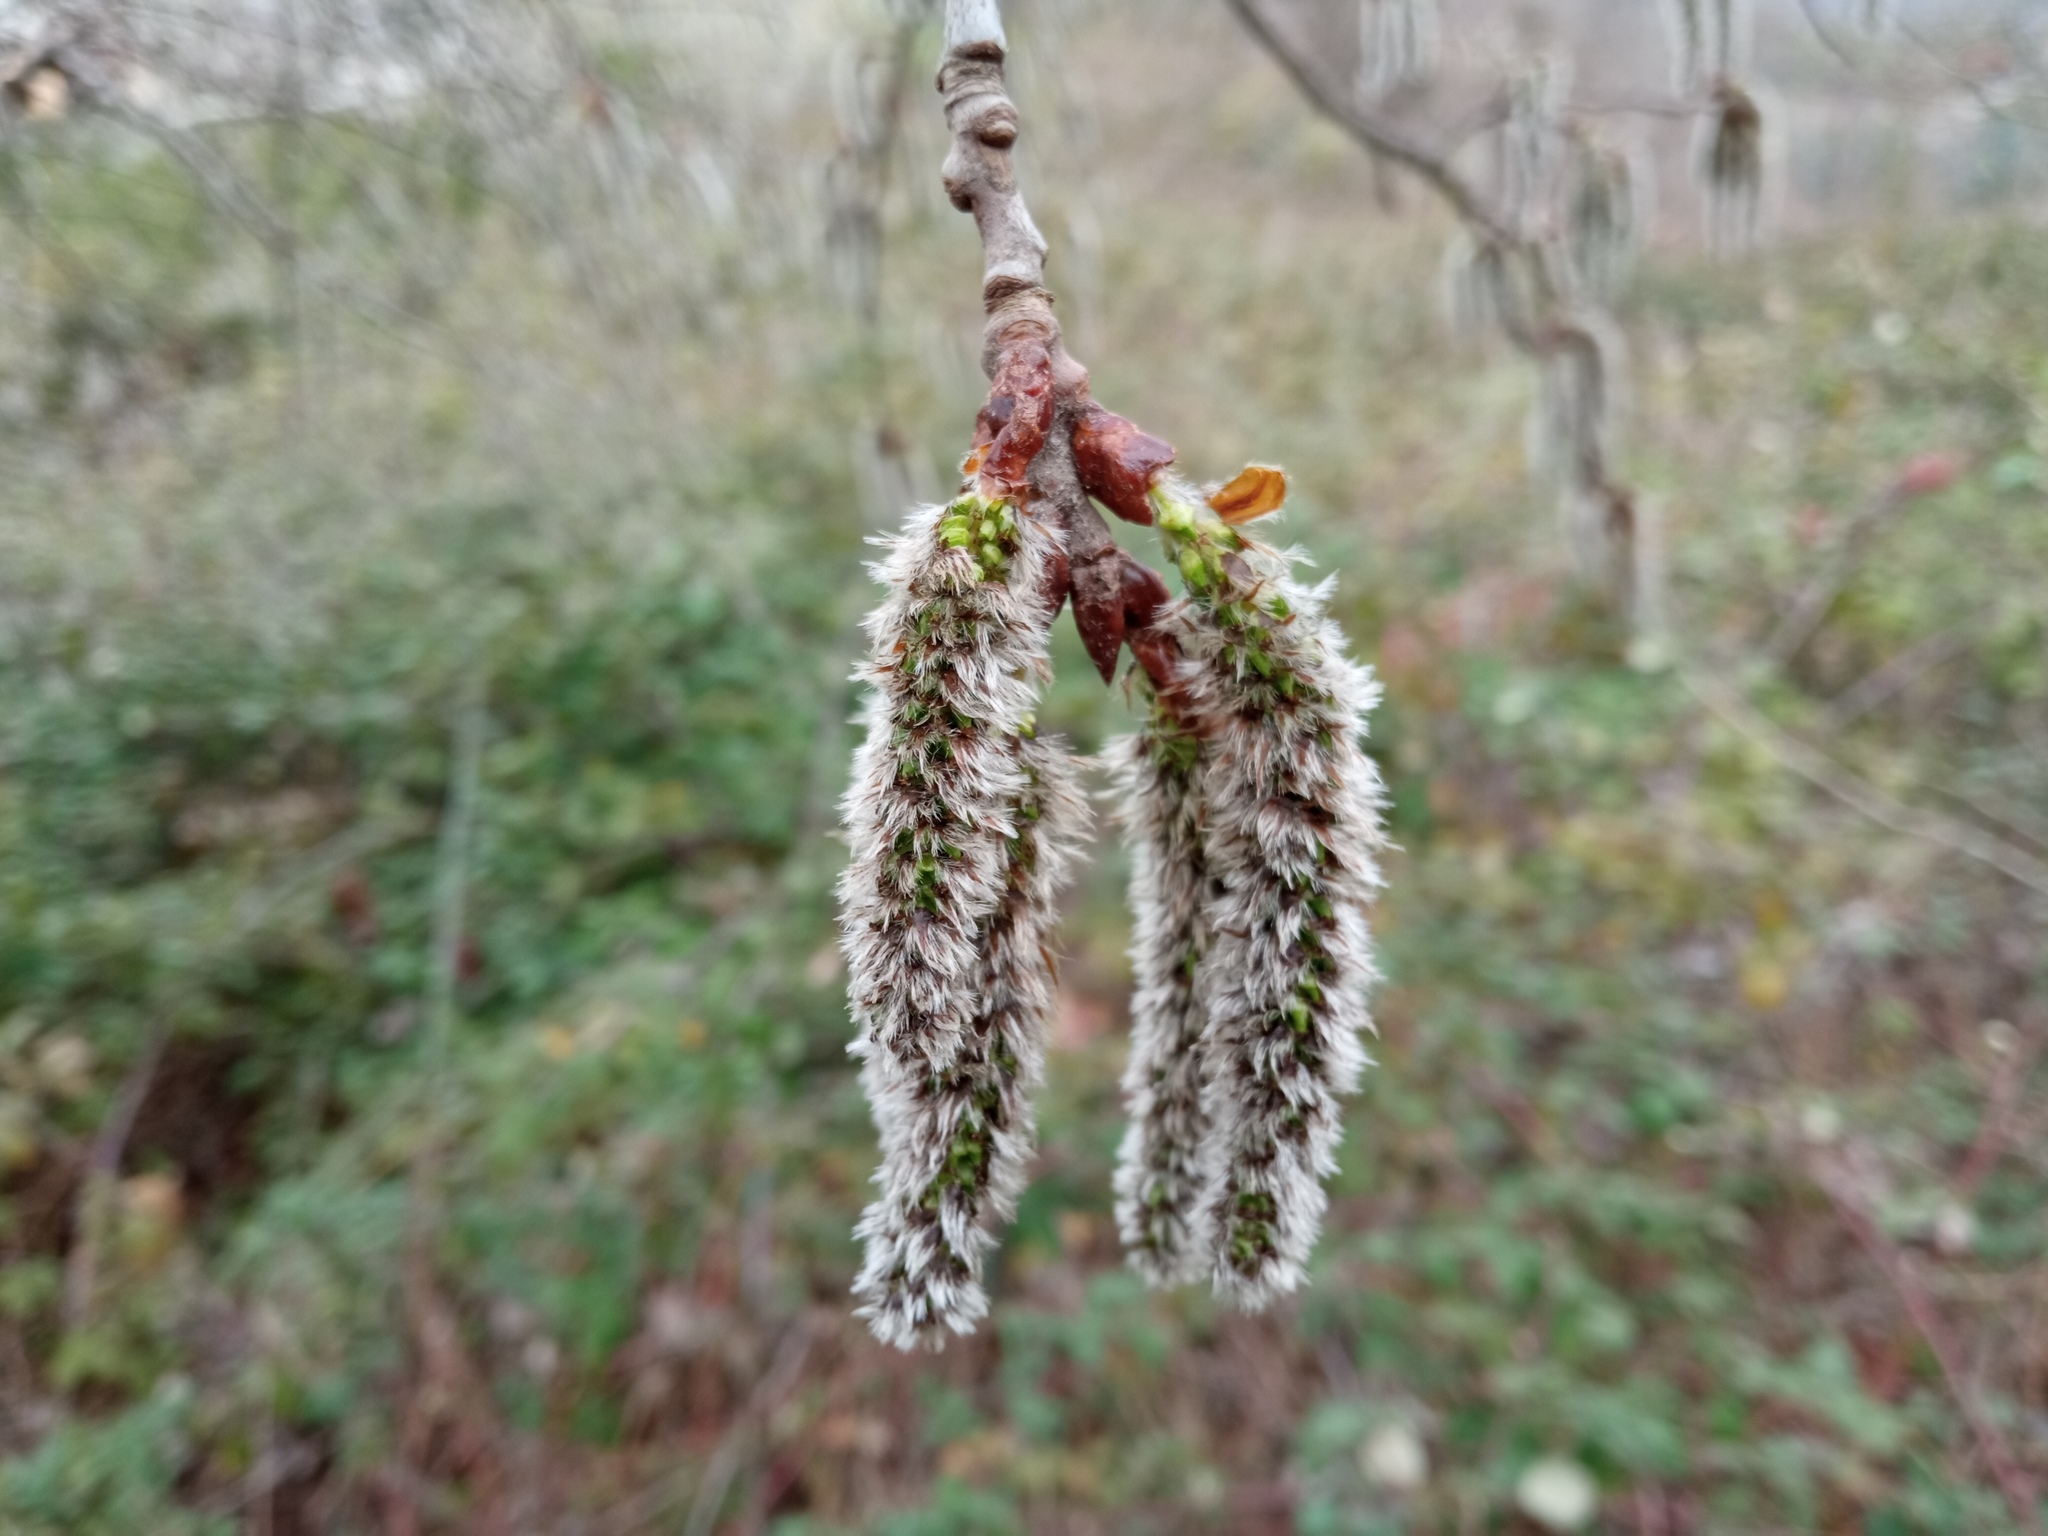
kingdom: Plantae
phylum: Tracheophyta
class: Magnoliopsida
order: Malpighiales
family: Salicaceae
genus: Populus
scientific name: Populus tremula
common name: European aspen
